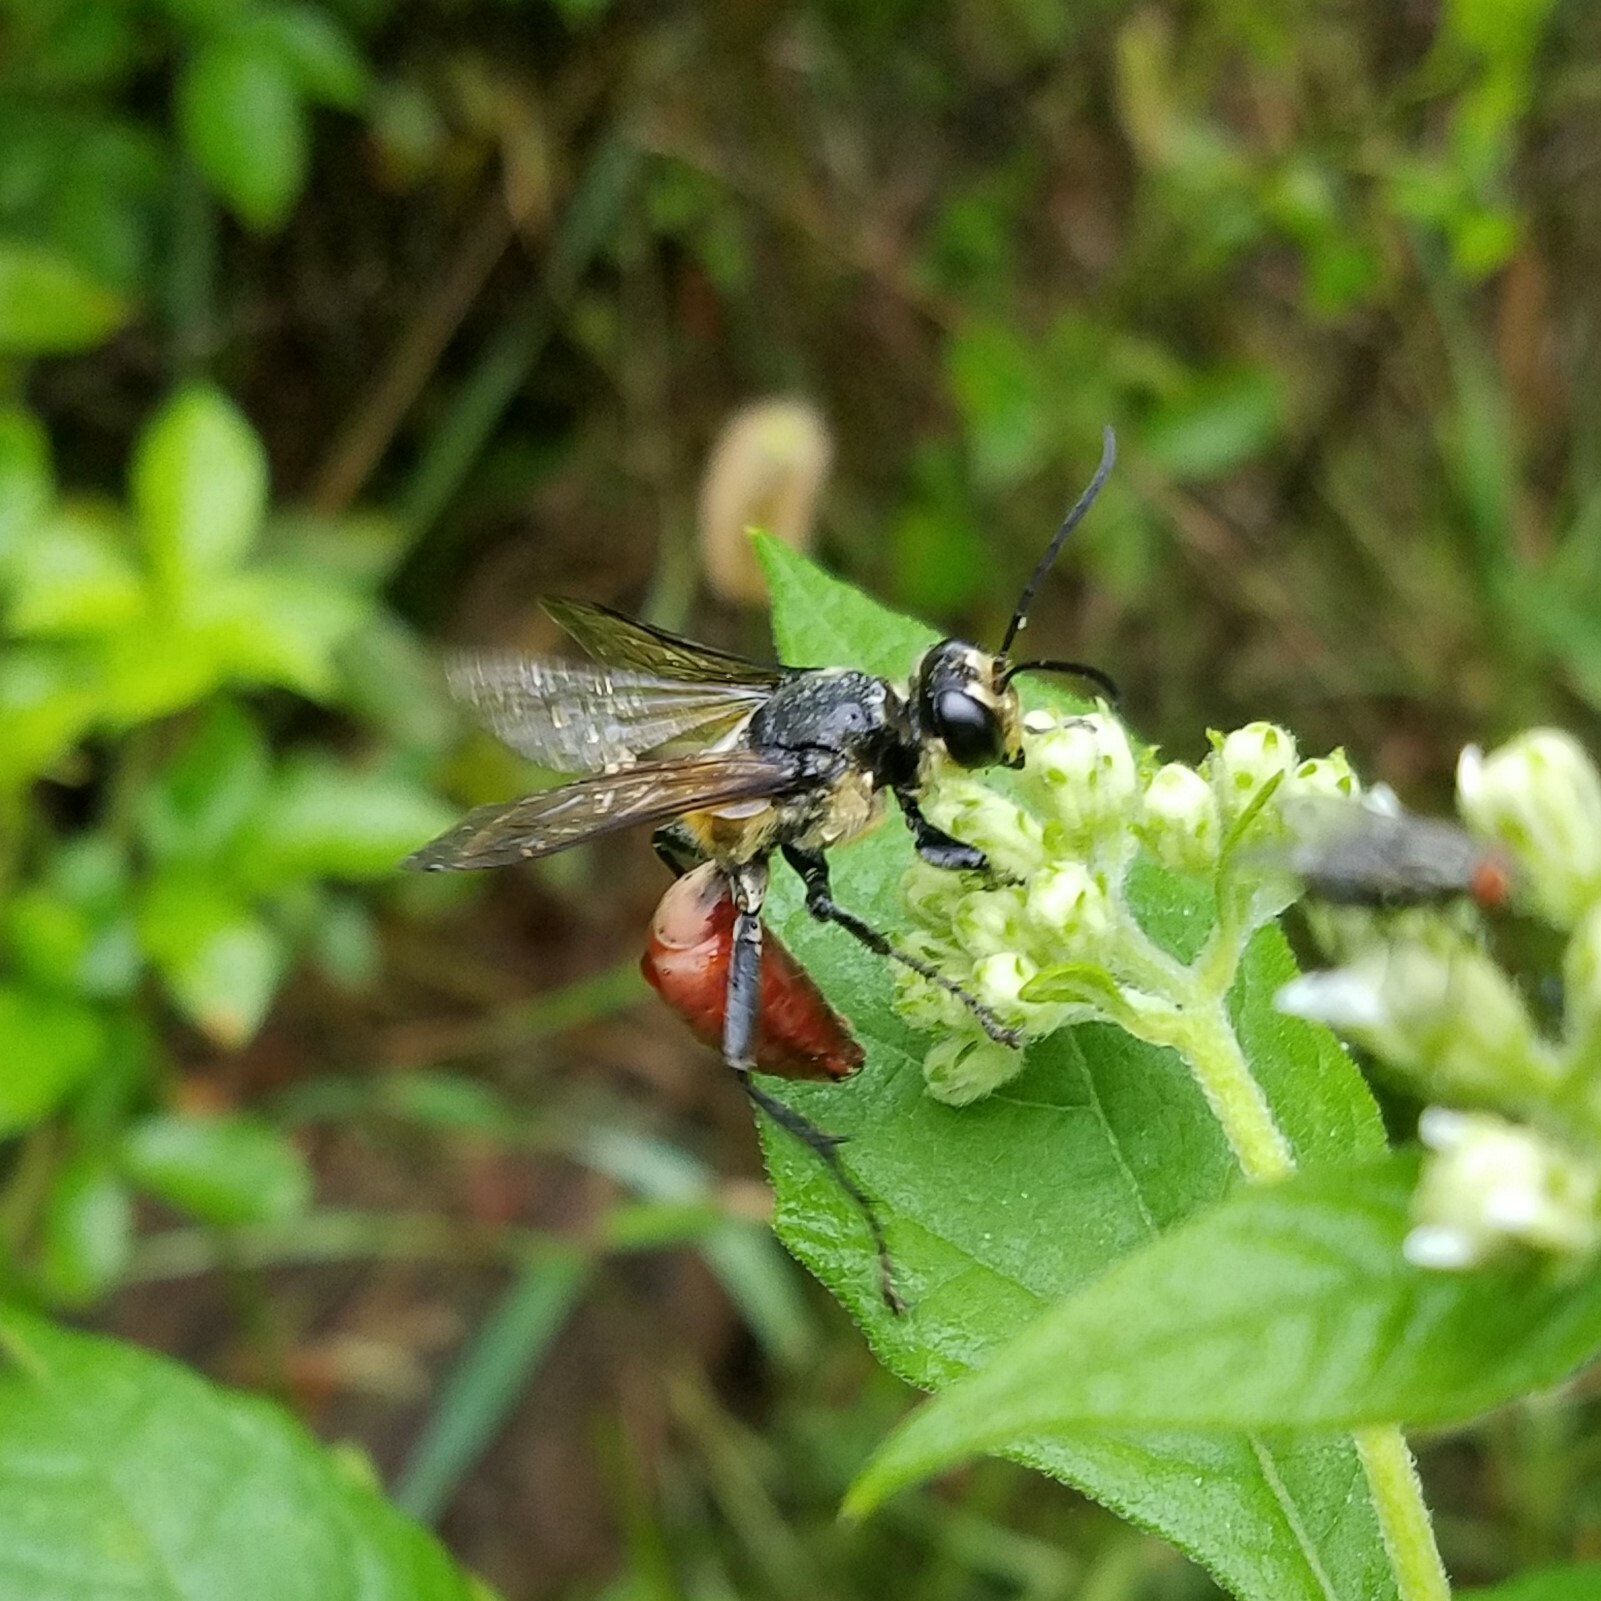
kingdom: Animalia
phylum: Arthropoda
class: Insecta
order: Hymenoptera
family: Sphecidae
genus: Sphex
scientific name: Sphex habenus
